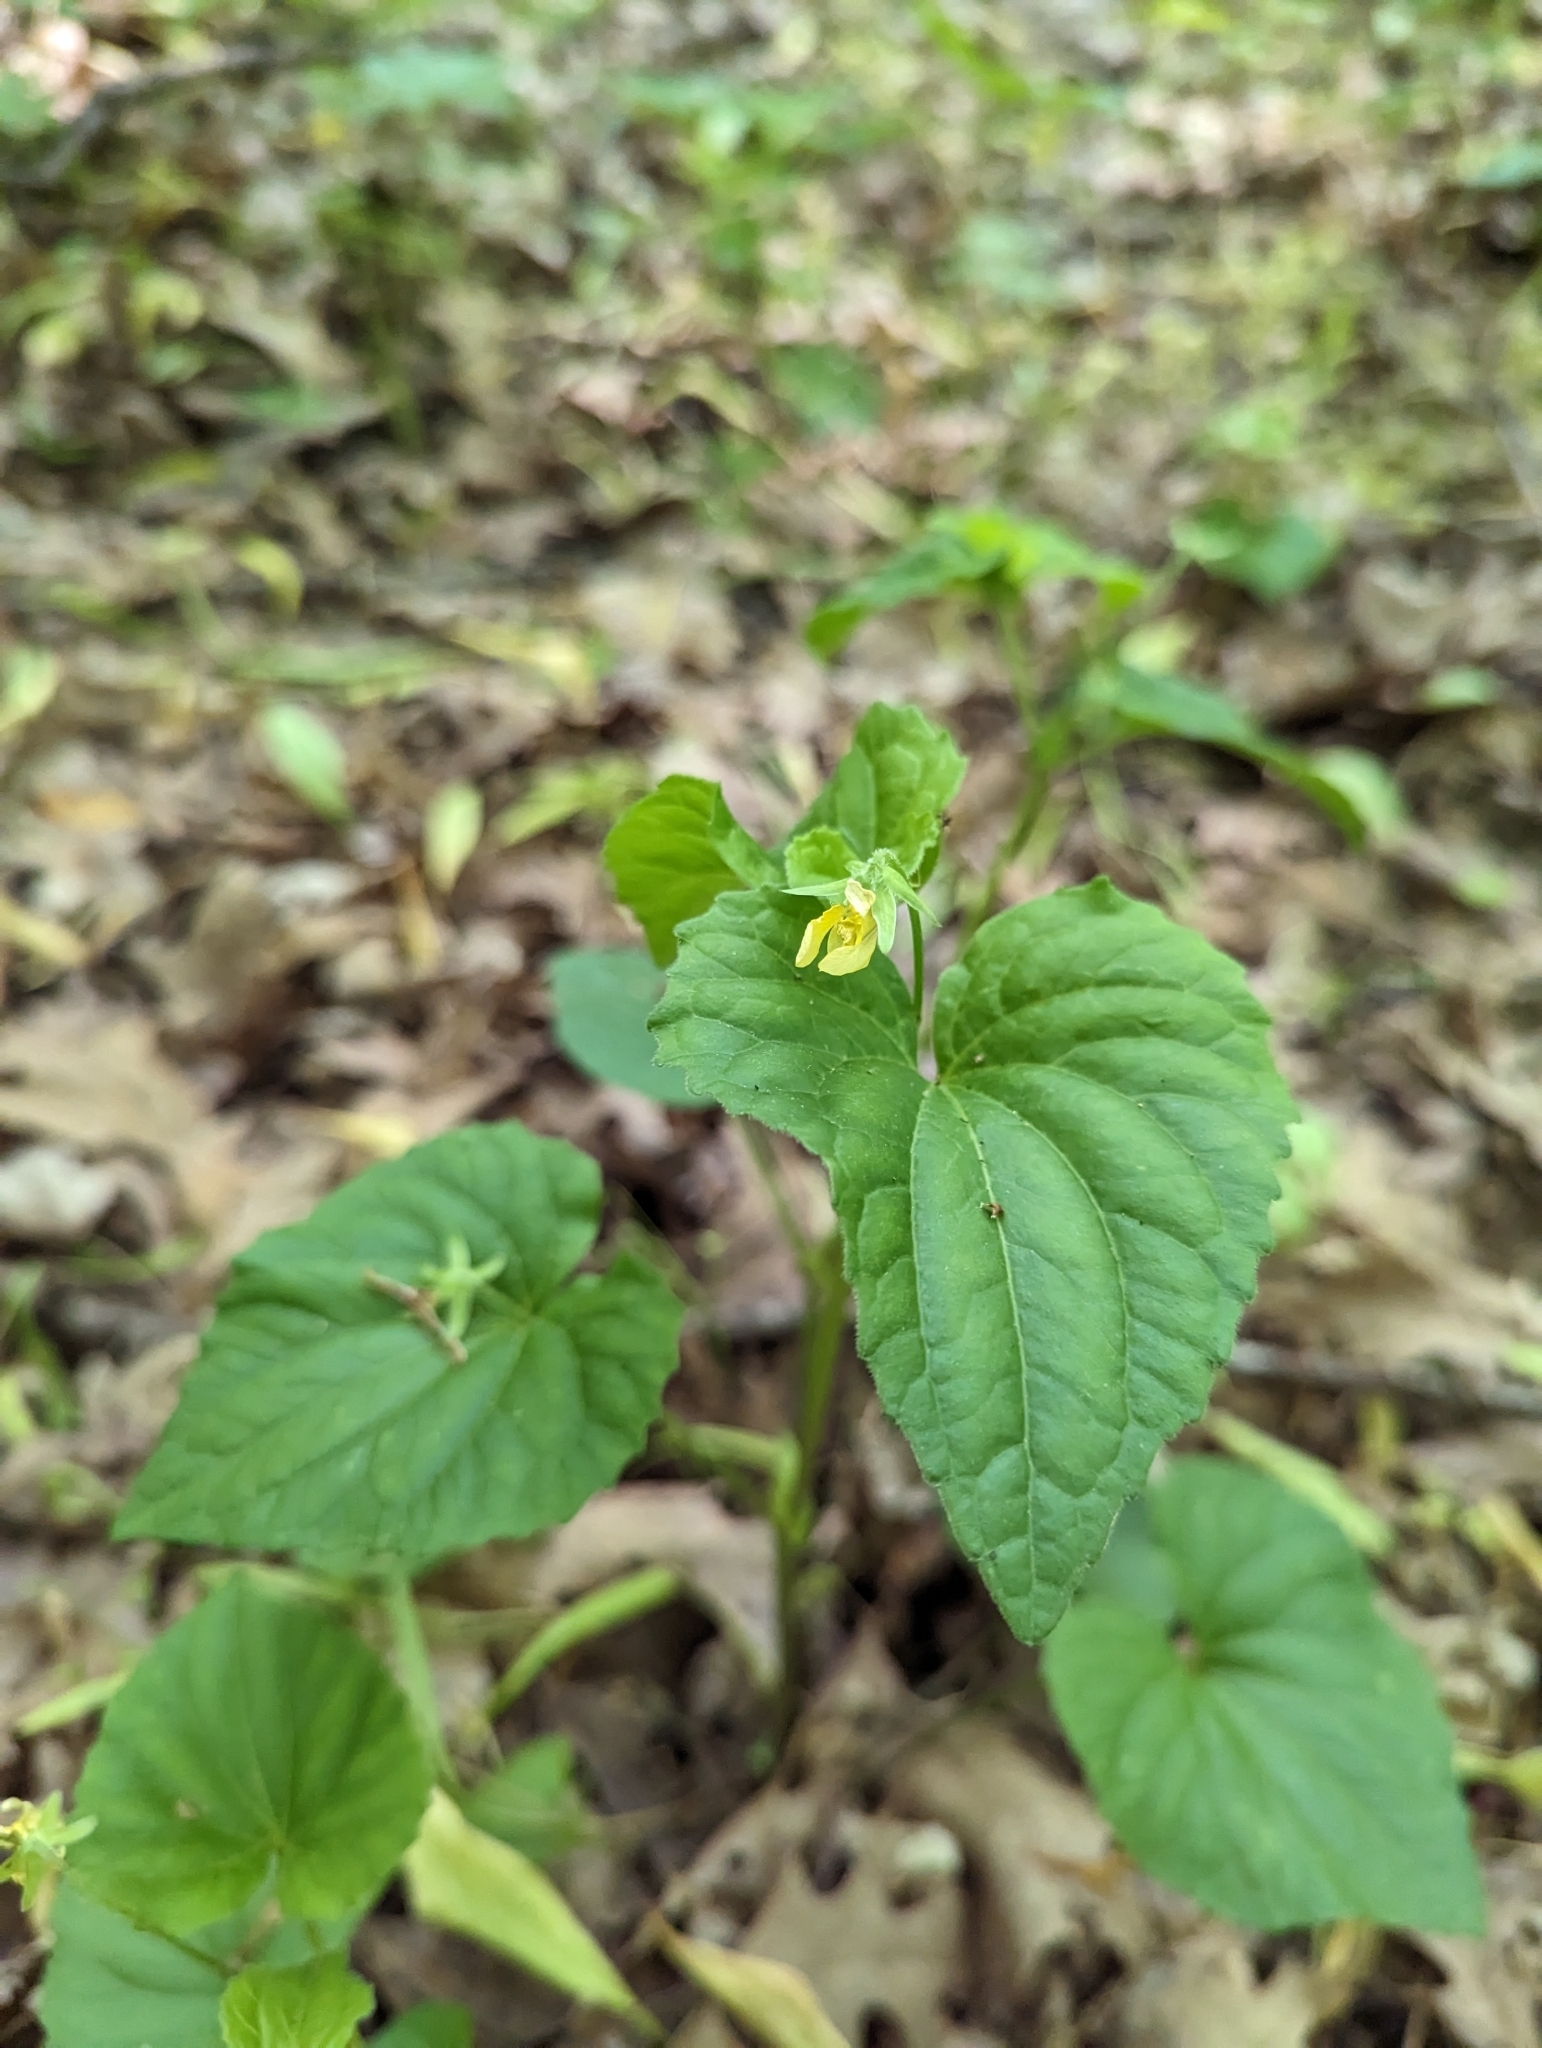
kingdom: Plantae
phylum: Tracheophyta
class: Magnoliopsida
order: Malpighiales
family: Violaceae
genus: Viola
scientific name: Viola eriocarpa
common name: Smooth yellow violet
